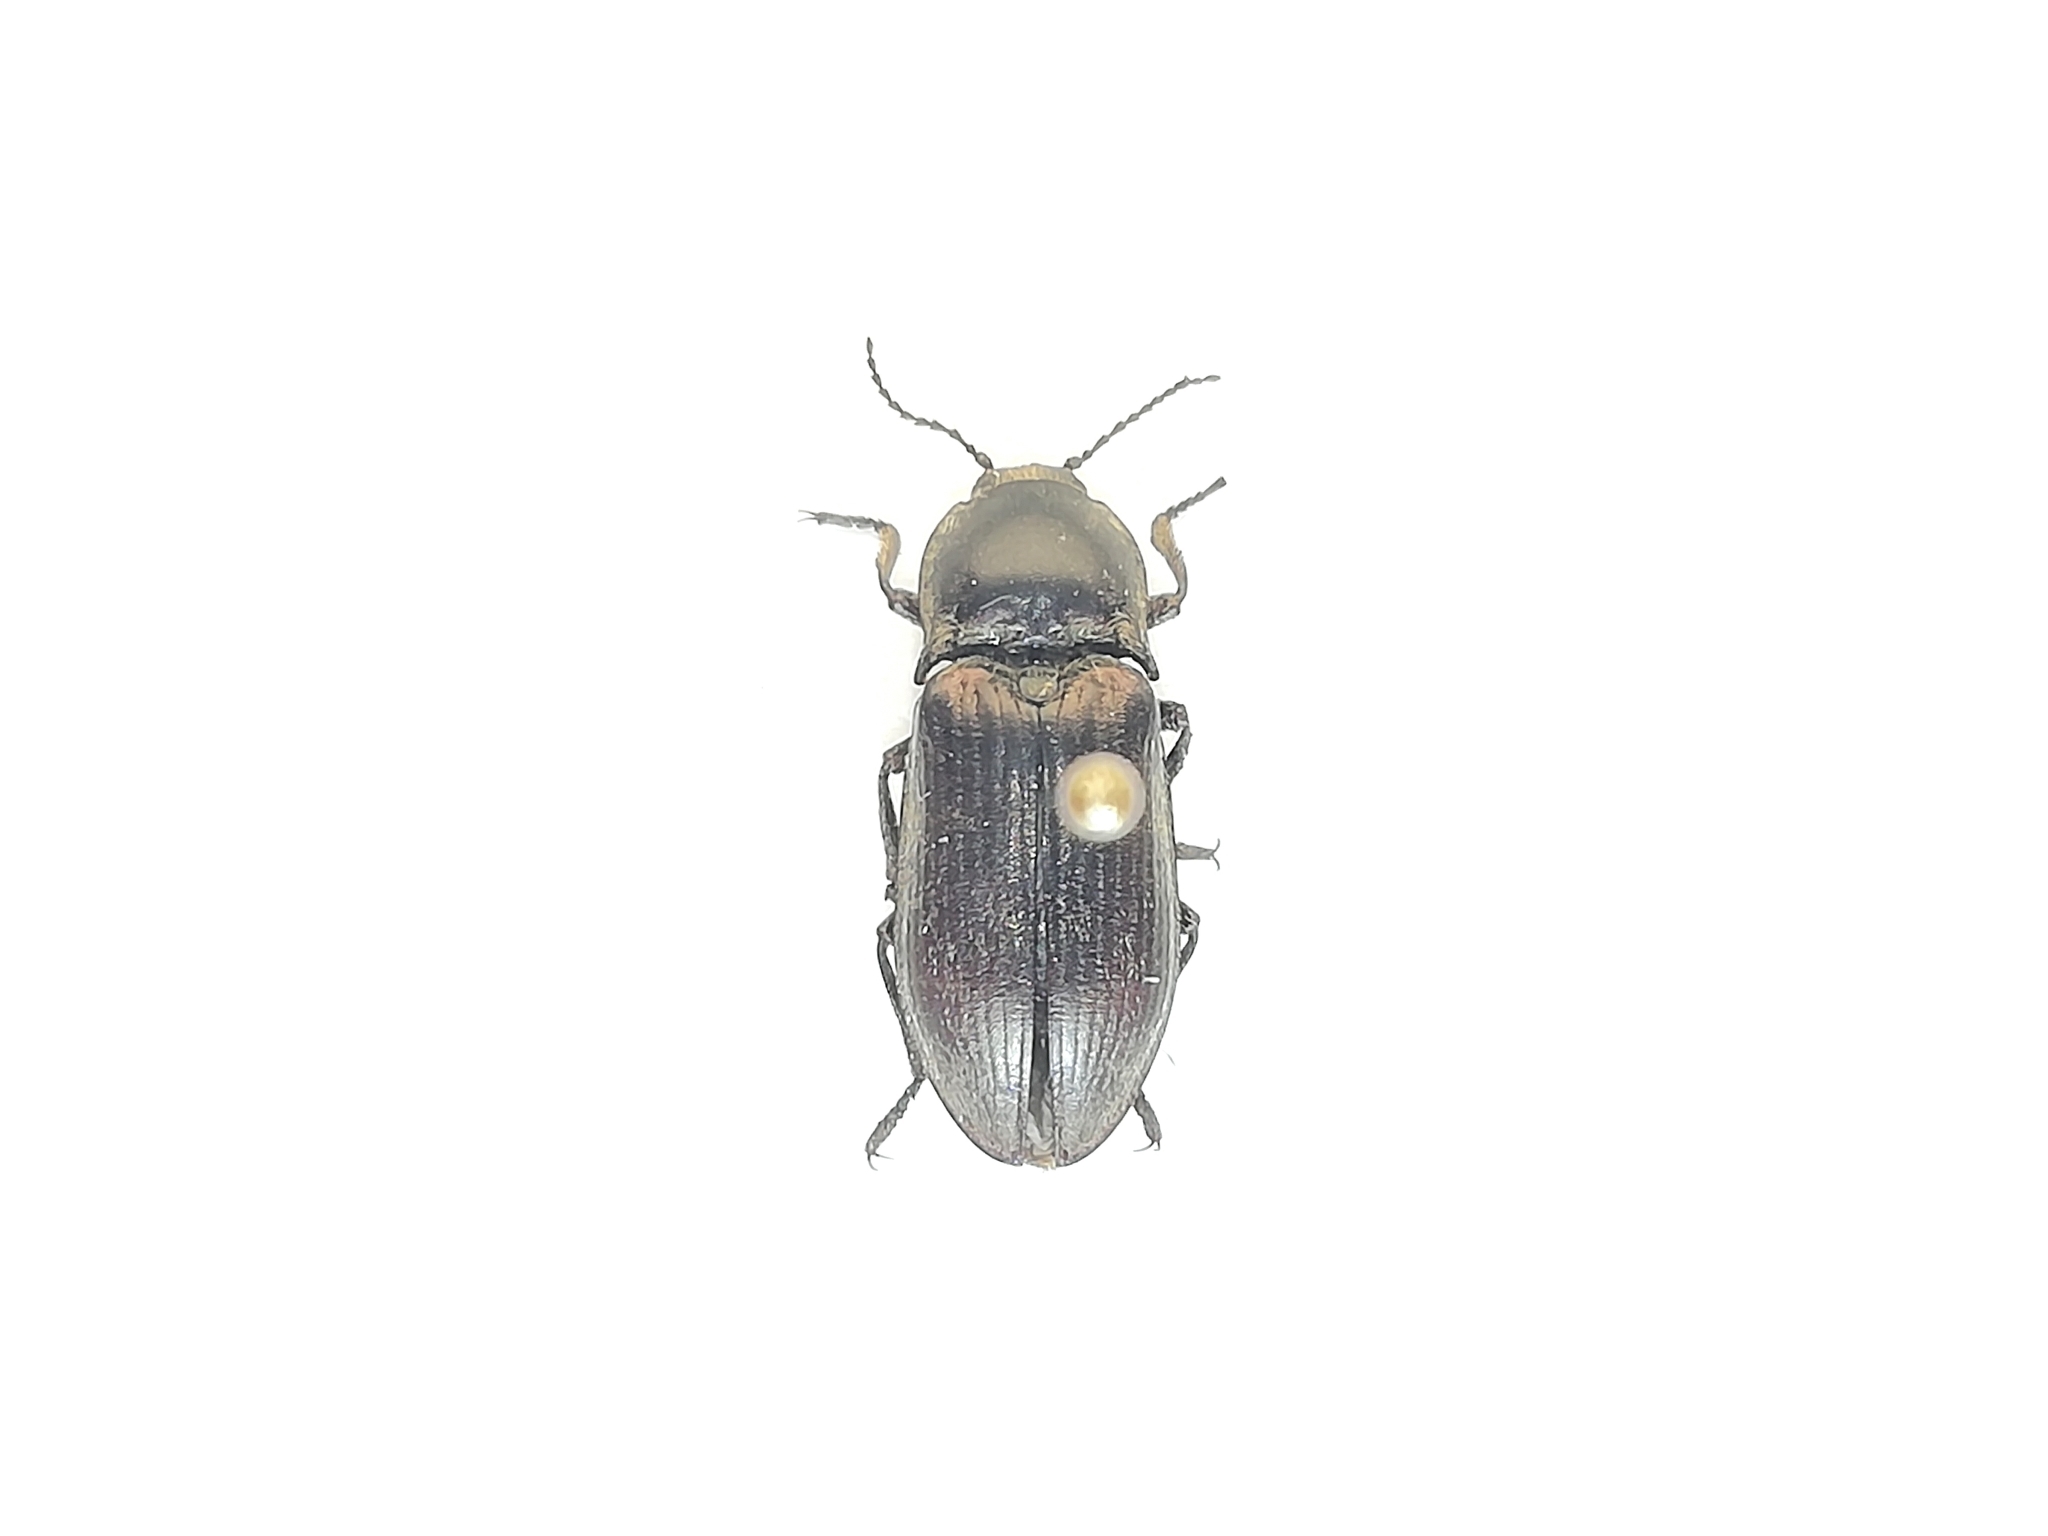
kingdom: Animalia
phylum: Arthropoda
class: Insecta
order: Coleoptera
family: Elateridae
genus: Selatosomus
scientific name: Selatosomus latus
